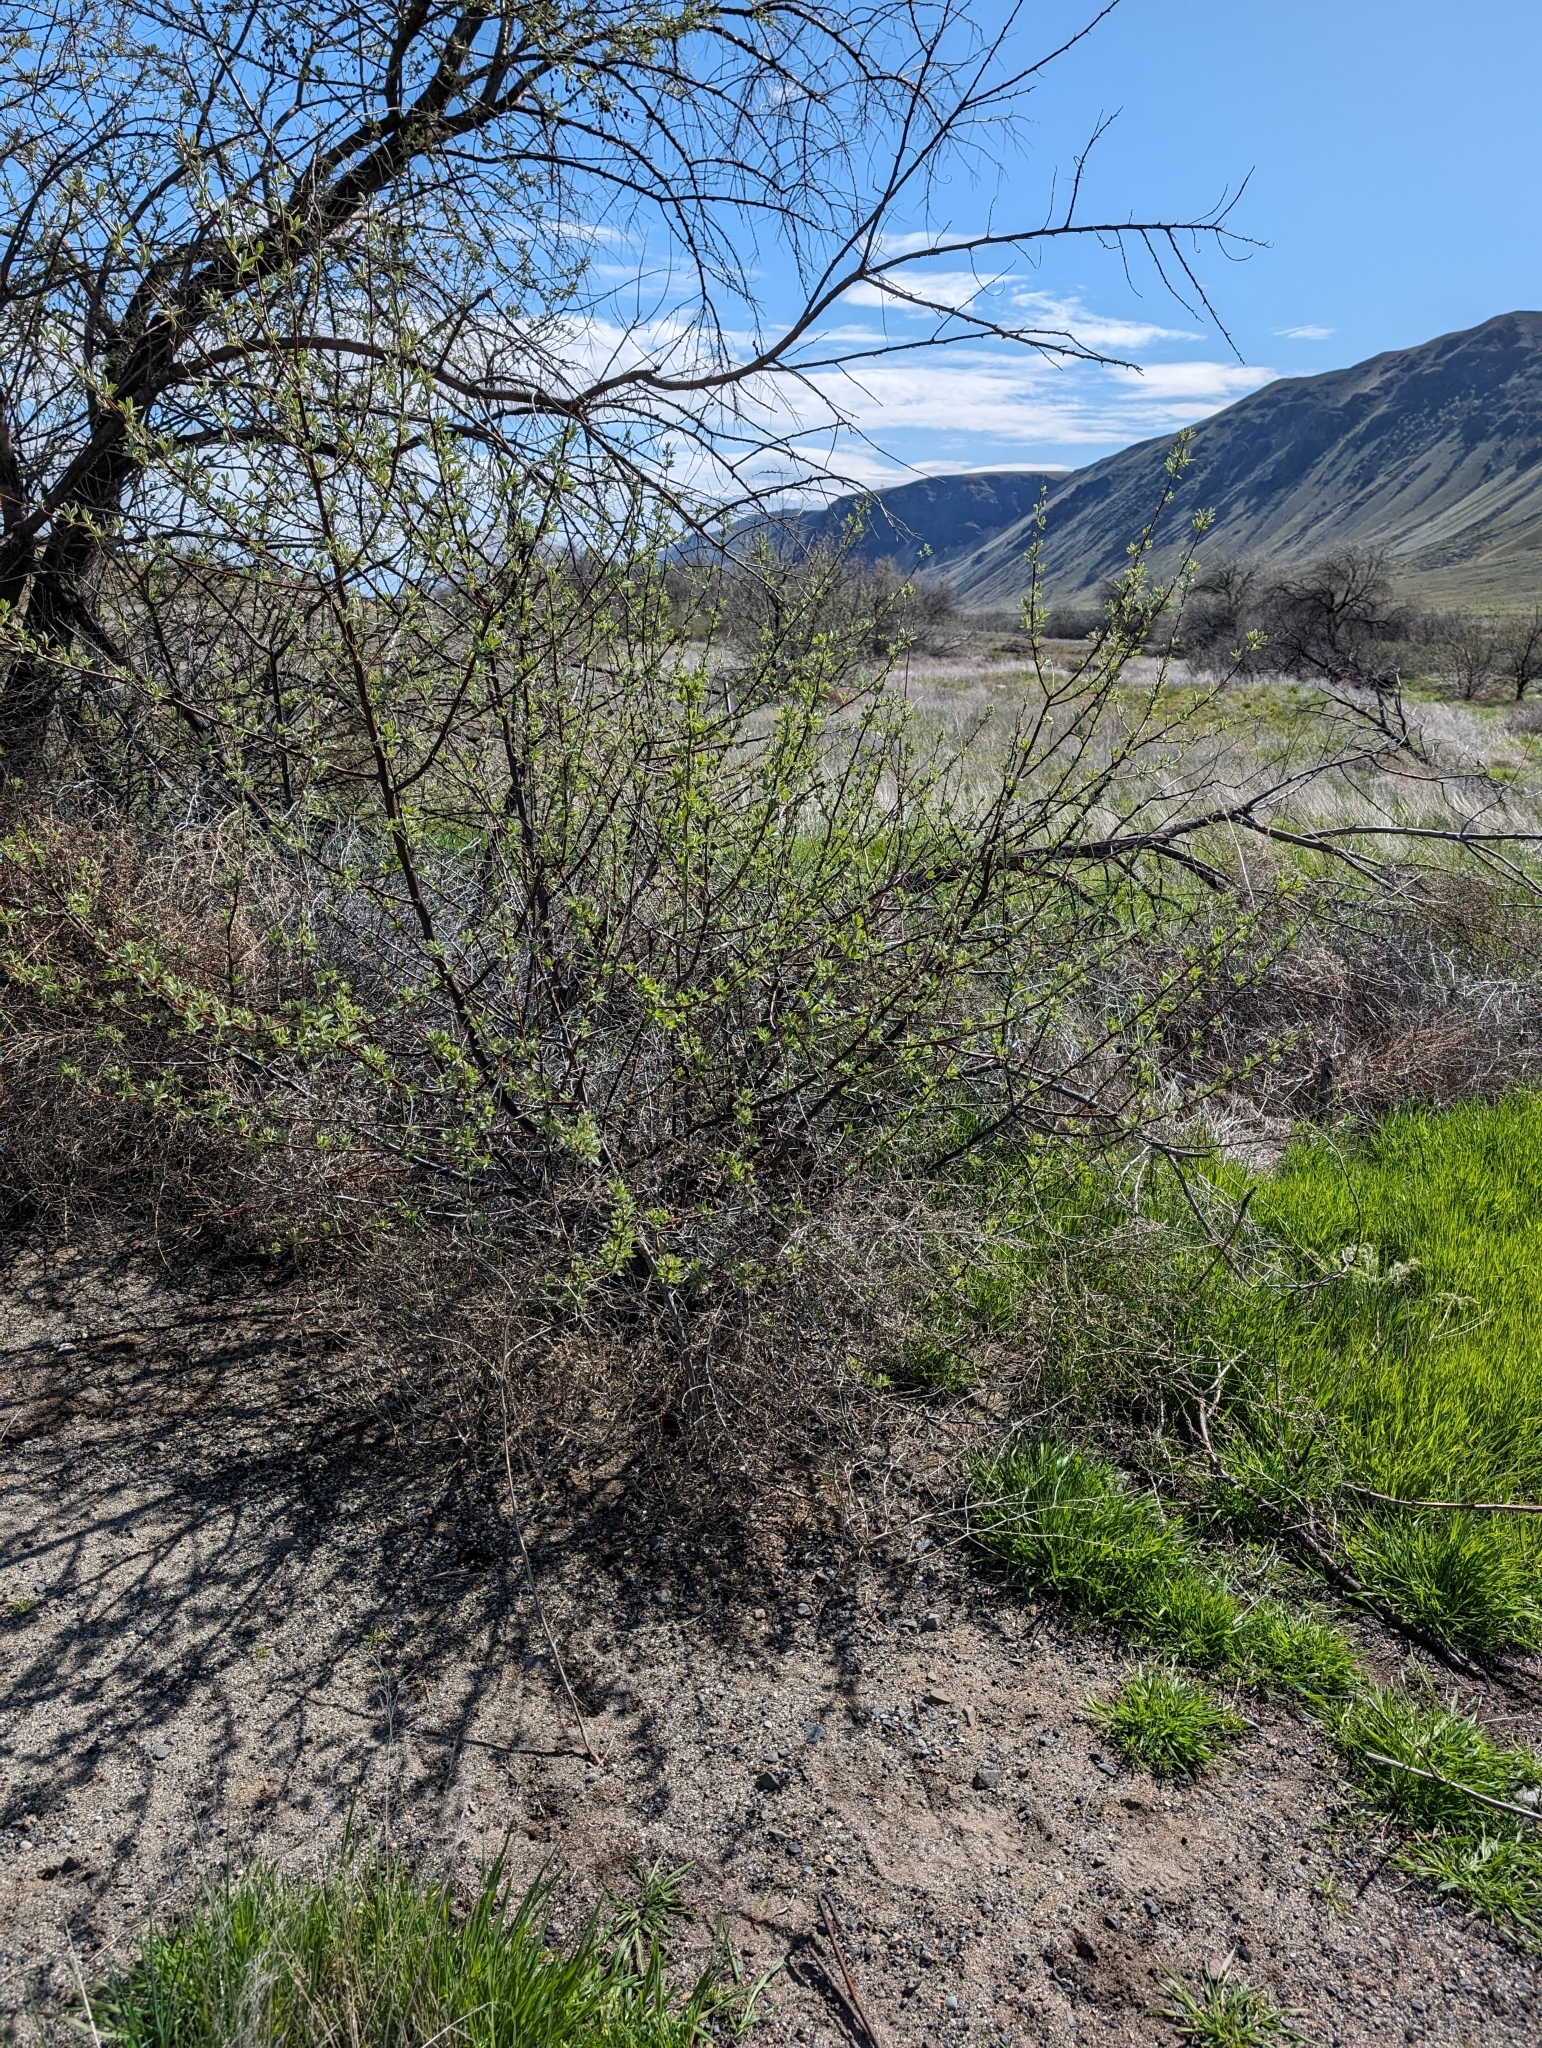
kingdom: Plantae
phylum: Tracheophyta
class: Magnoliopsida
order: Rosales
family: Elaeagnaceae
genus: Elaeagnus
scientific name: Elaeagnus angustifolia
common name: Russian olive
